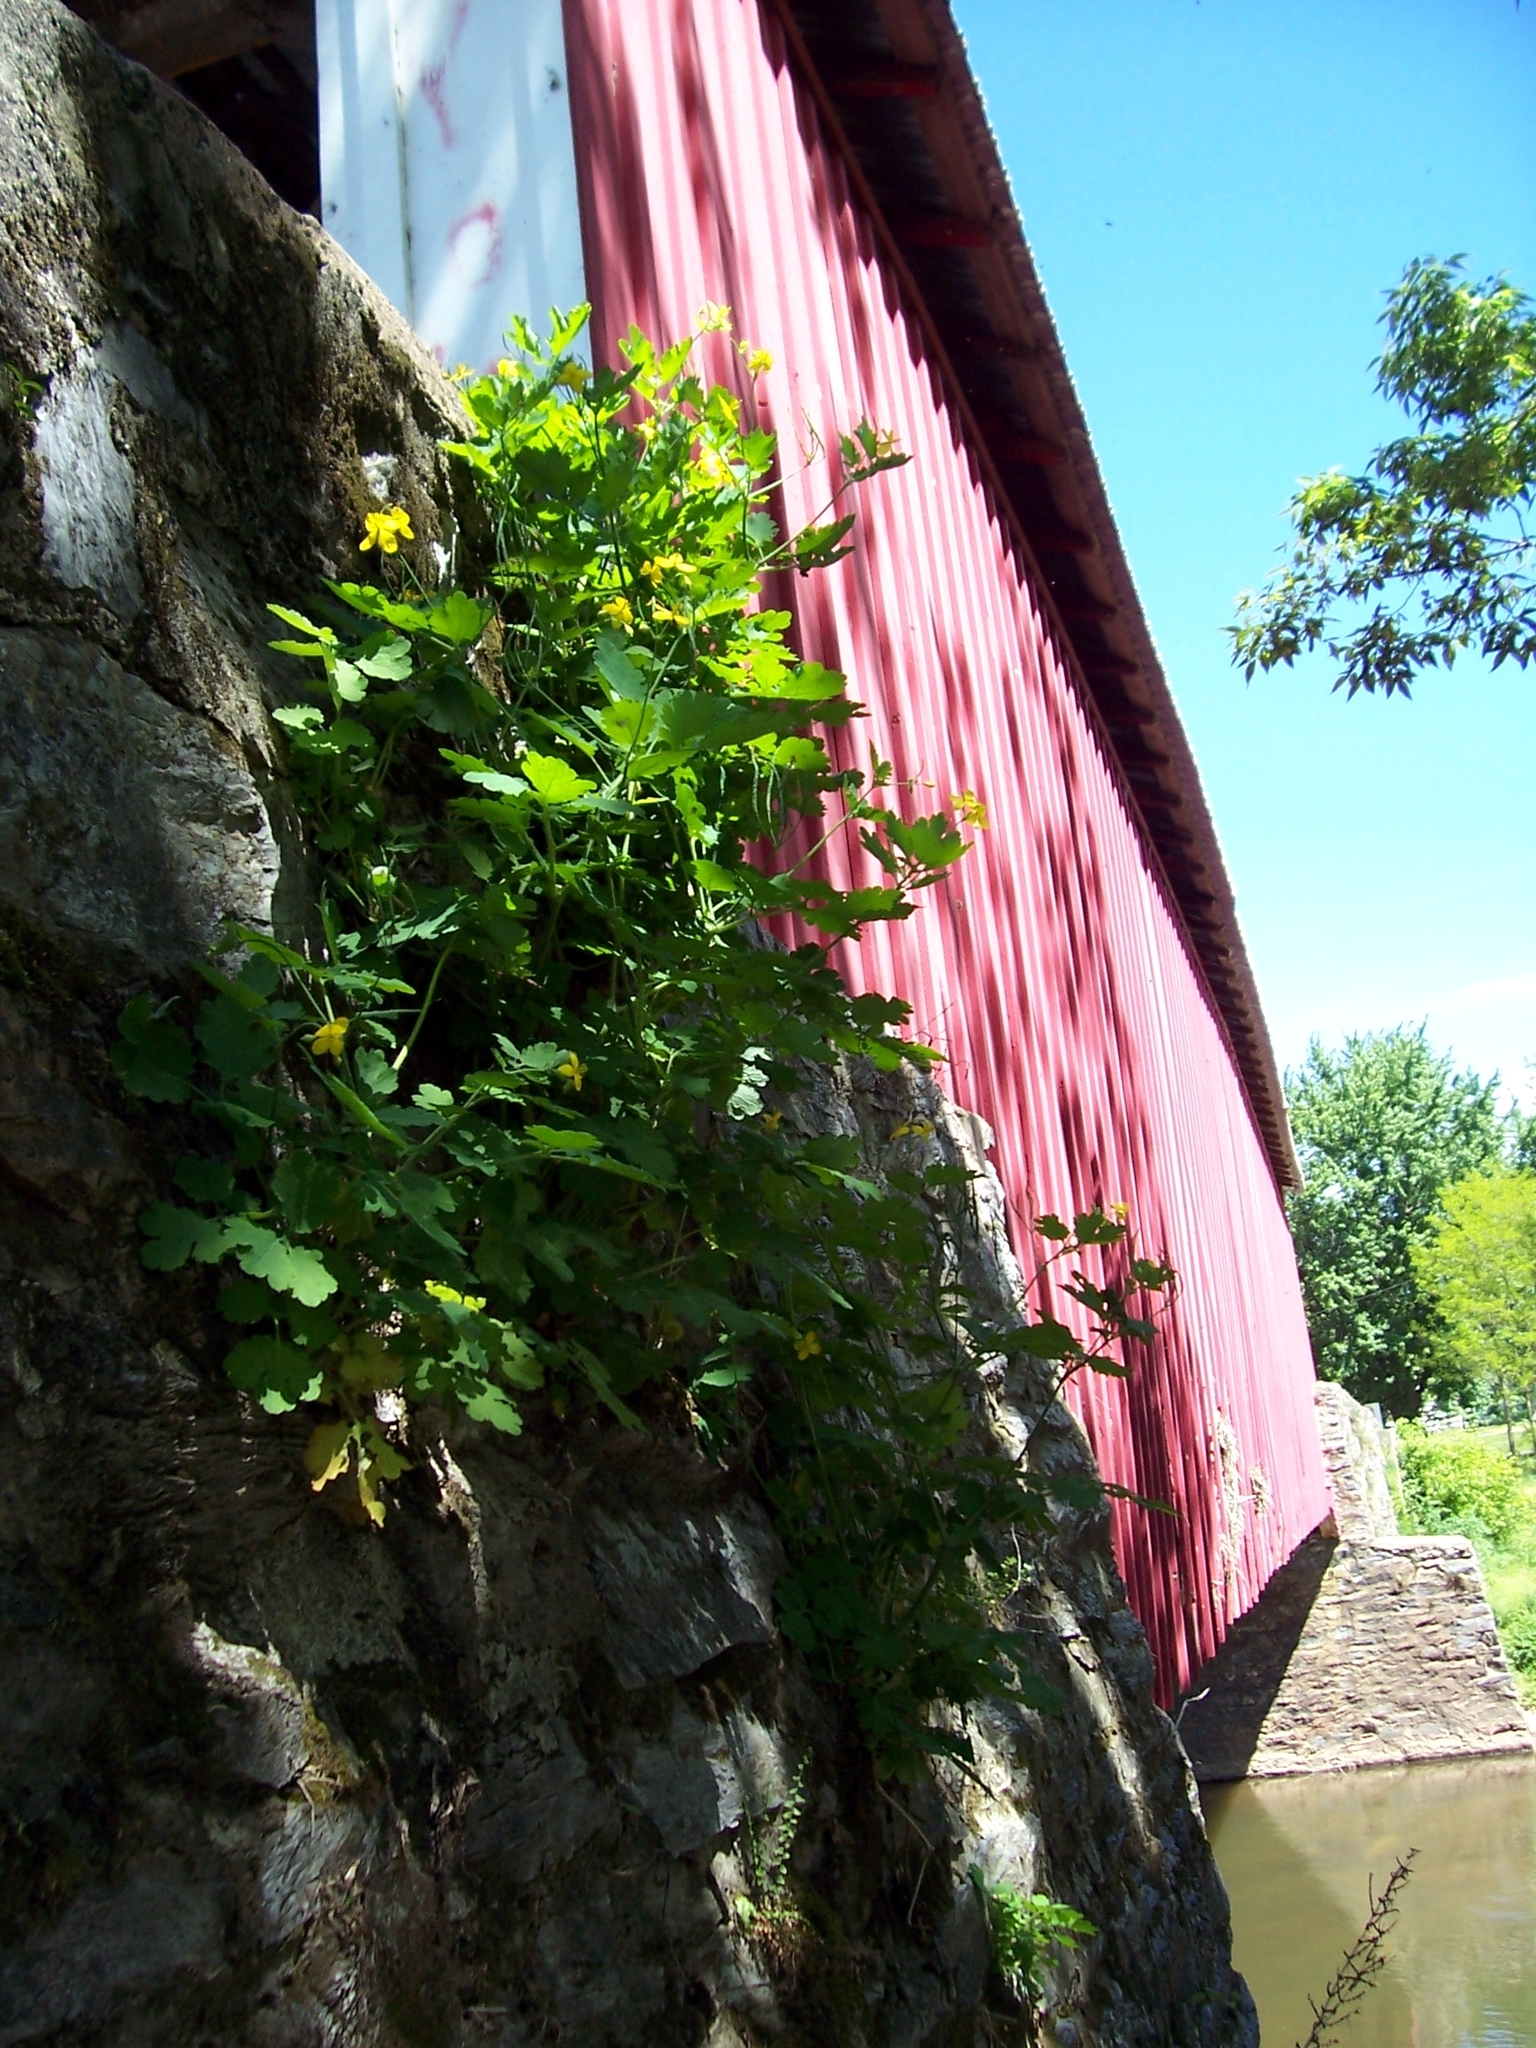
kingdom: Plantae
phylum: Tracheophyta
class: Magnoliopsida
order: Ranunculales
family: Papaveraceae
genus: Chelidonium
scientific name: Chelidonium majus
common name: Greater celandine
